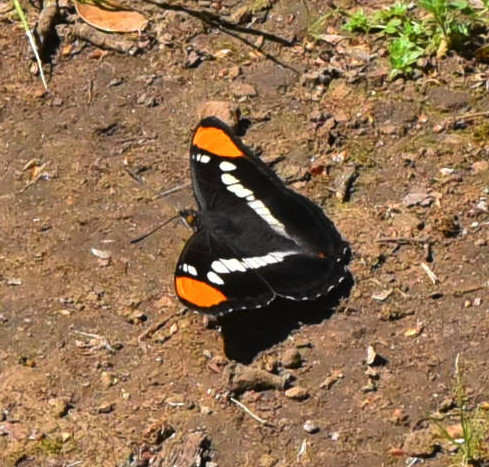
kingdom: Animalia
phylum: Arthropoda
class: Insecta
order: Lepidoptera
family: Nymphalidae
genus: Limenitis
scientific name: Limenitis bredowii
